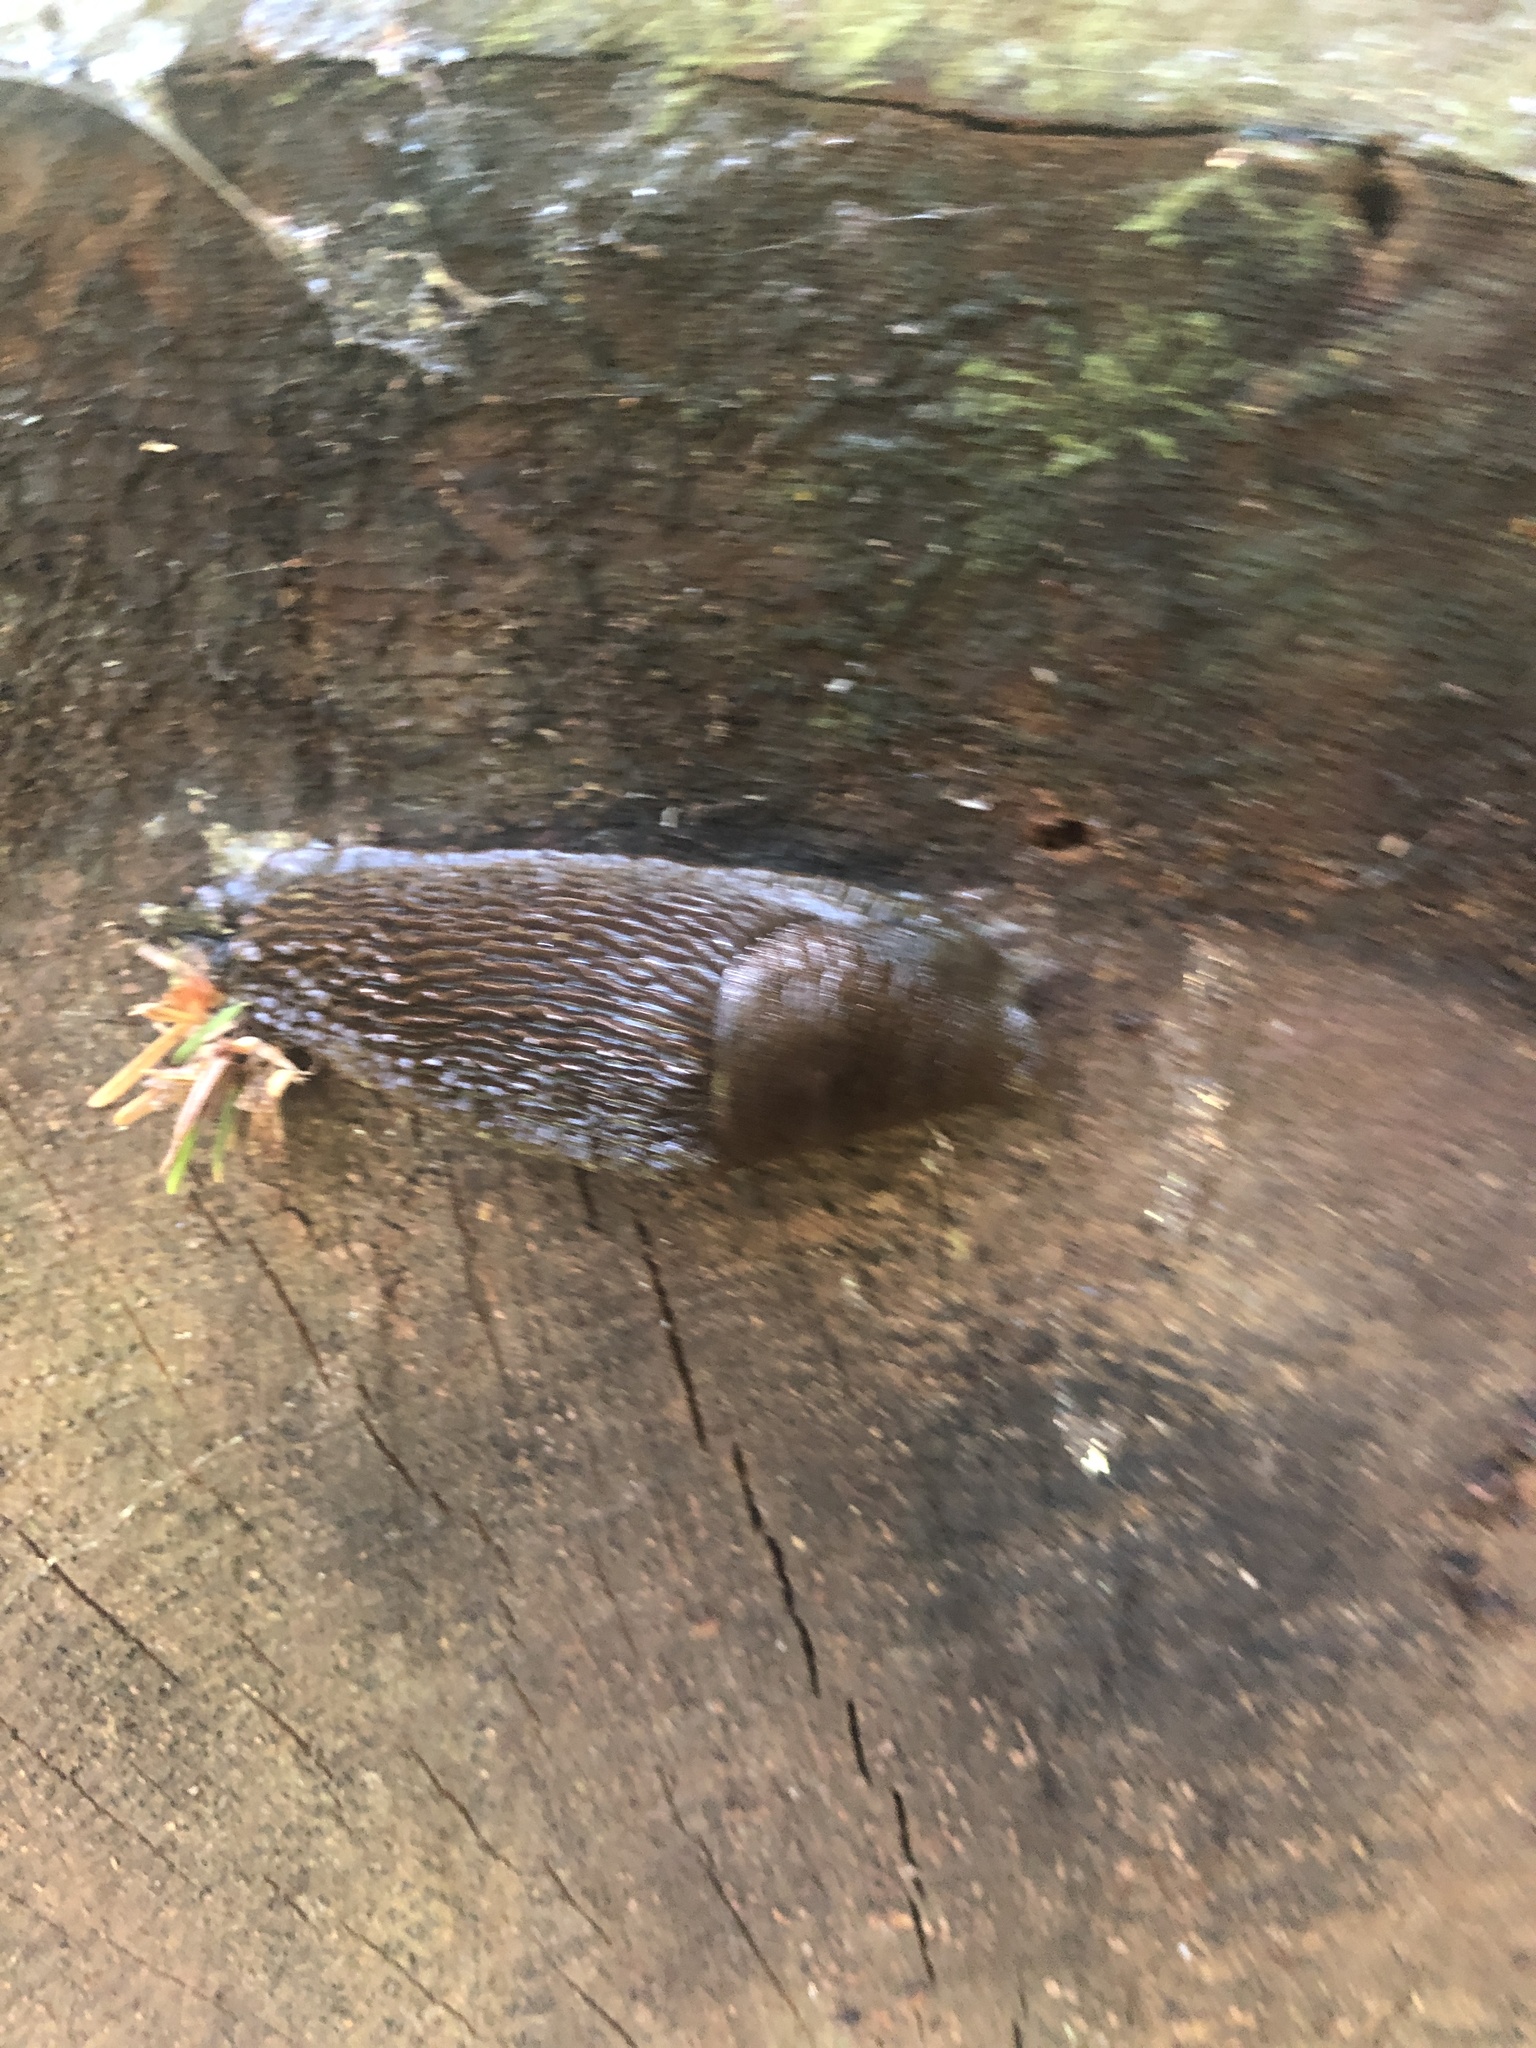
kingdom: Animalia
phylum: Mollusca
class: Gastropoda
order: Stylommatophora
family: Arionidae
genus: Arion
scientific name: Arion
